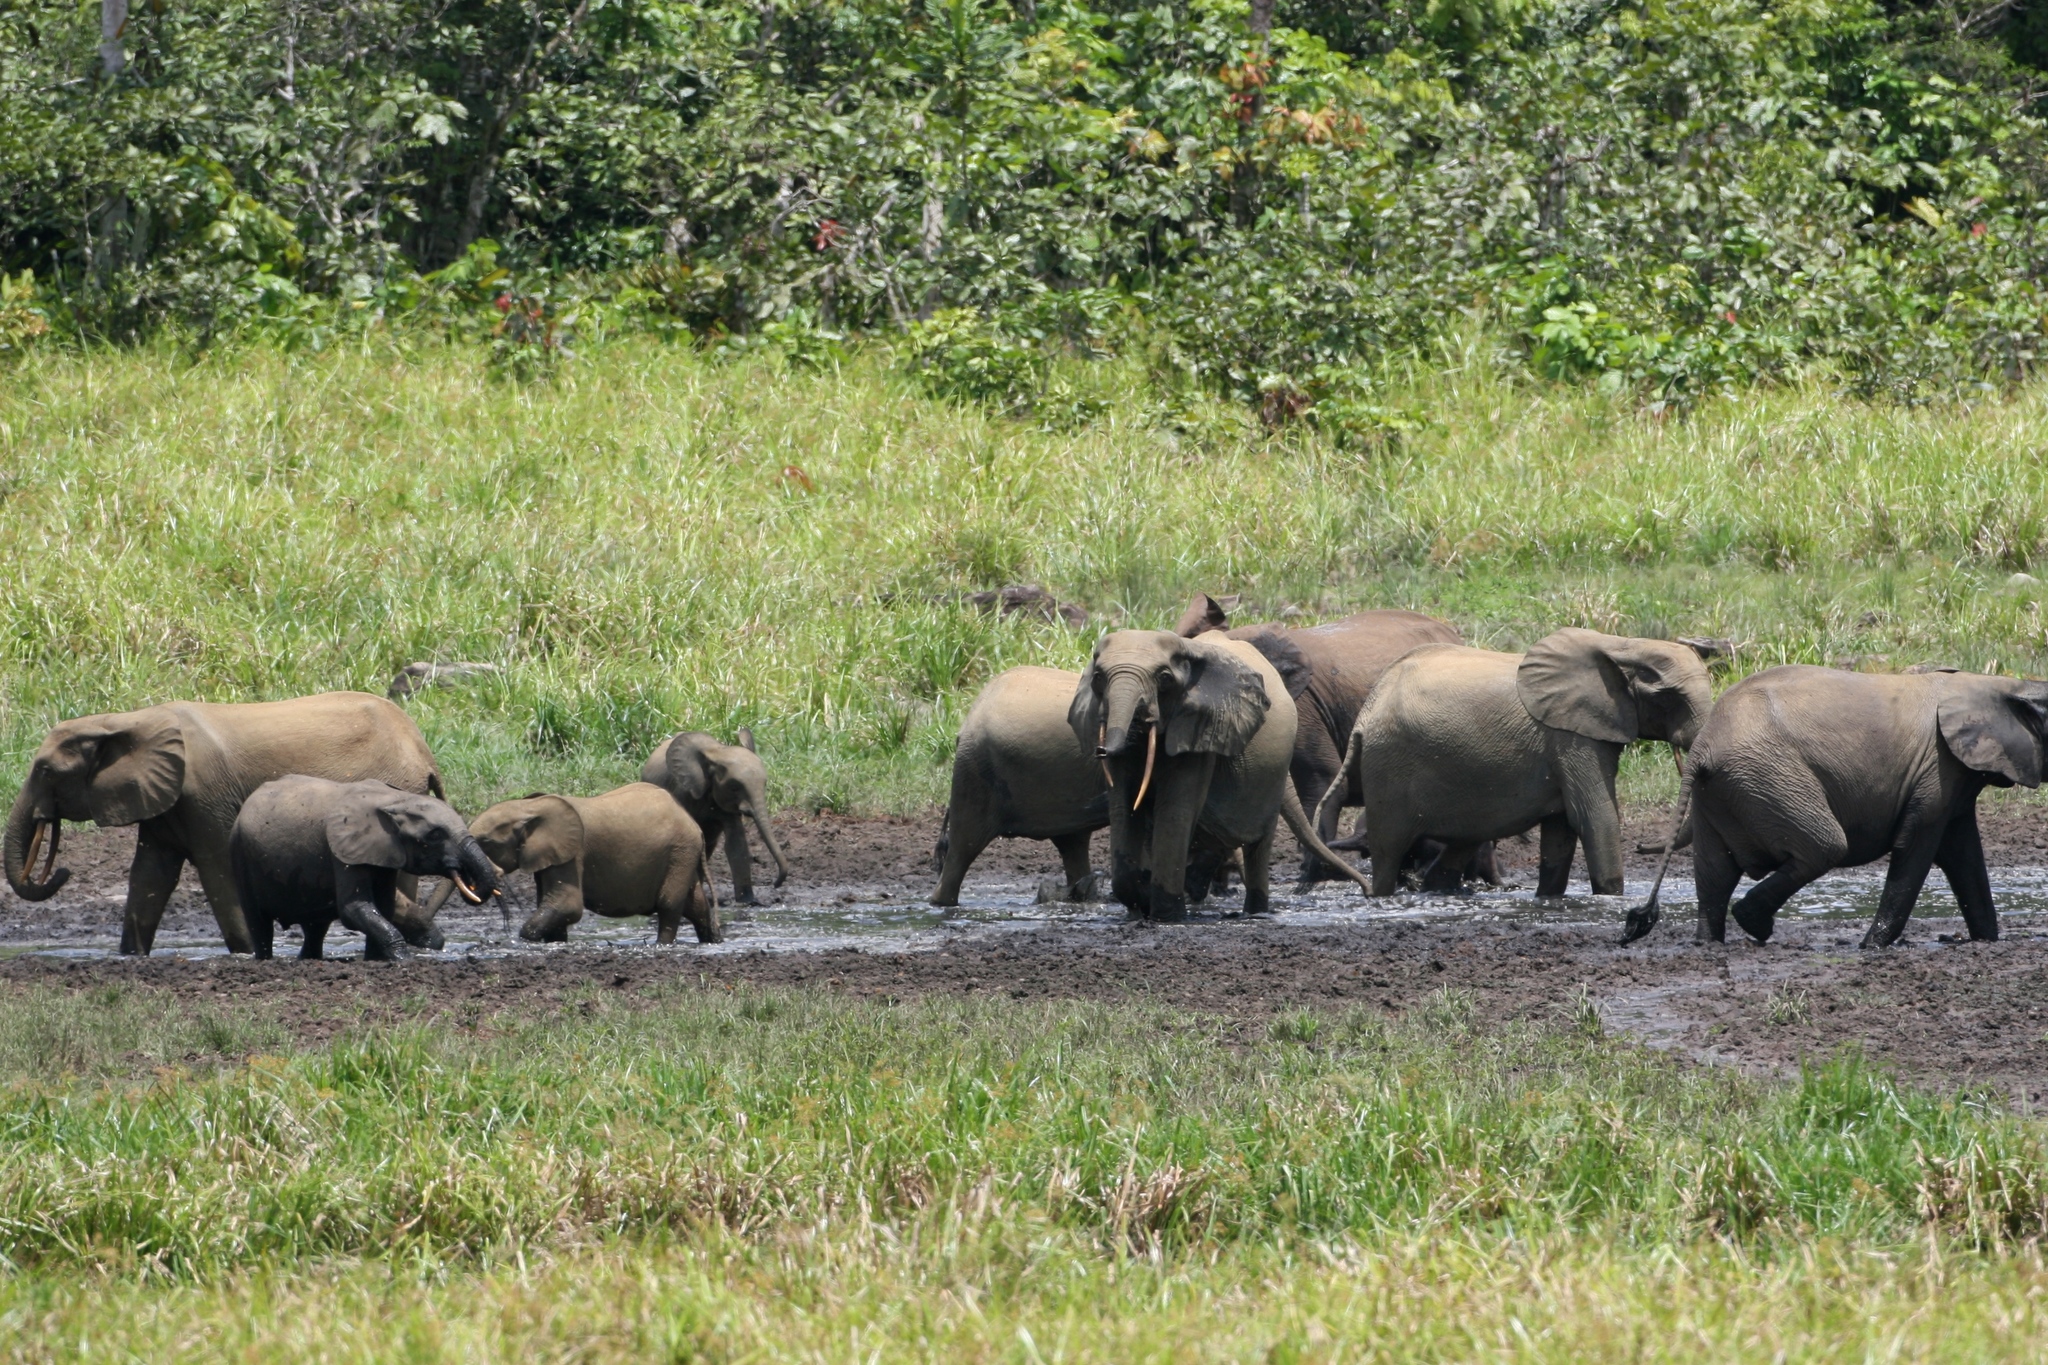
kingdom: Animalia
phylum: Chordata
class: Mammalia
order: Proboscidea
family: Elephantidae
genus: Loxodonta
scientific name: Loxodonta cyclotis
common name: African forest elephant
